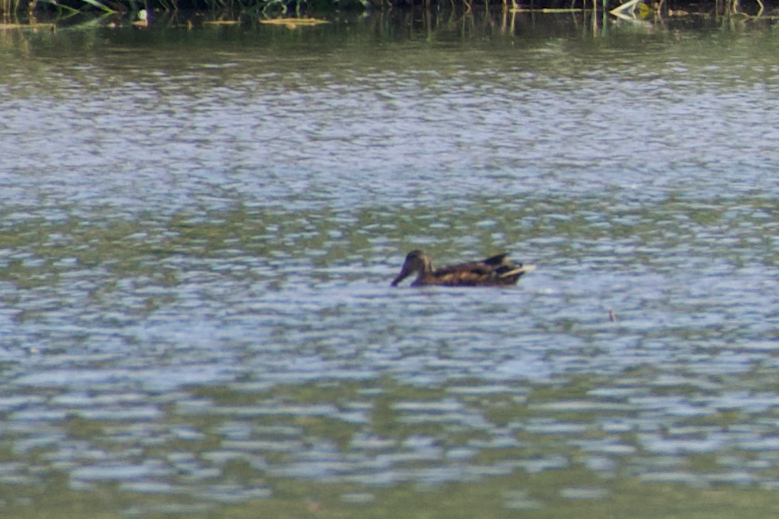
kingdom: Animalia
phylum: Chordata
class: Aves
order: Anseriformes
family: Anatidae
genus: Spatula
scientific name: Spatula clypeata
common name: Northern shoveler
